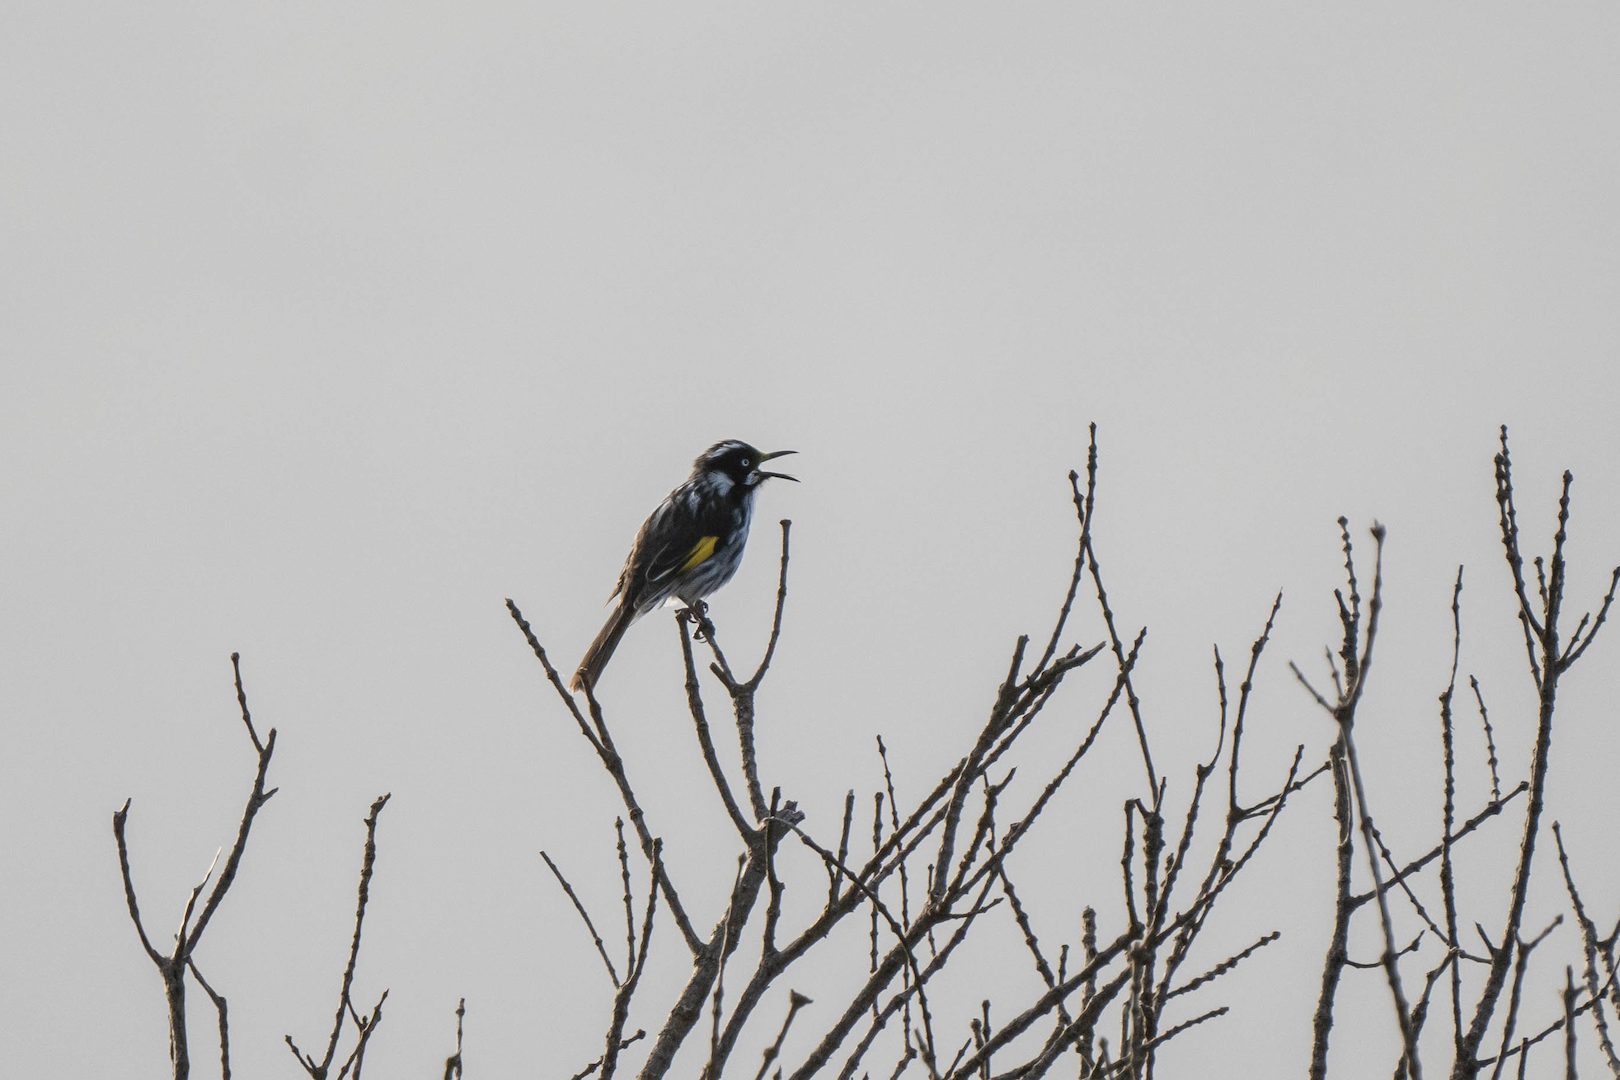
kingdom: Animalia
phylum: Chordata
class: Aves
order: Passeriformes
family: Meliphagidae
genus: Phylidonyris
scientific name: Phylidonyris novaehollandiae
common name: New holland honeyeater
